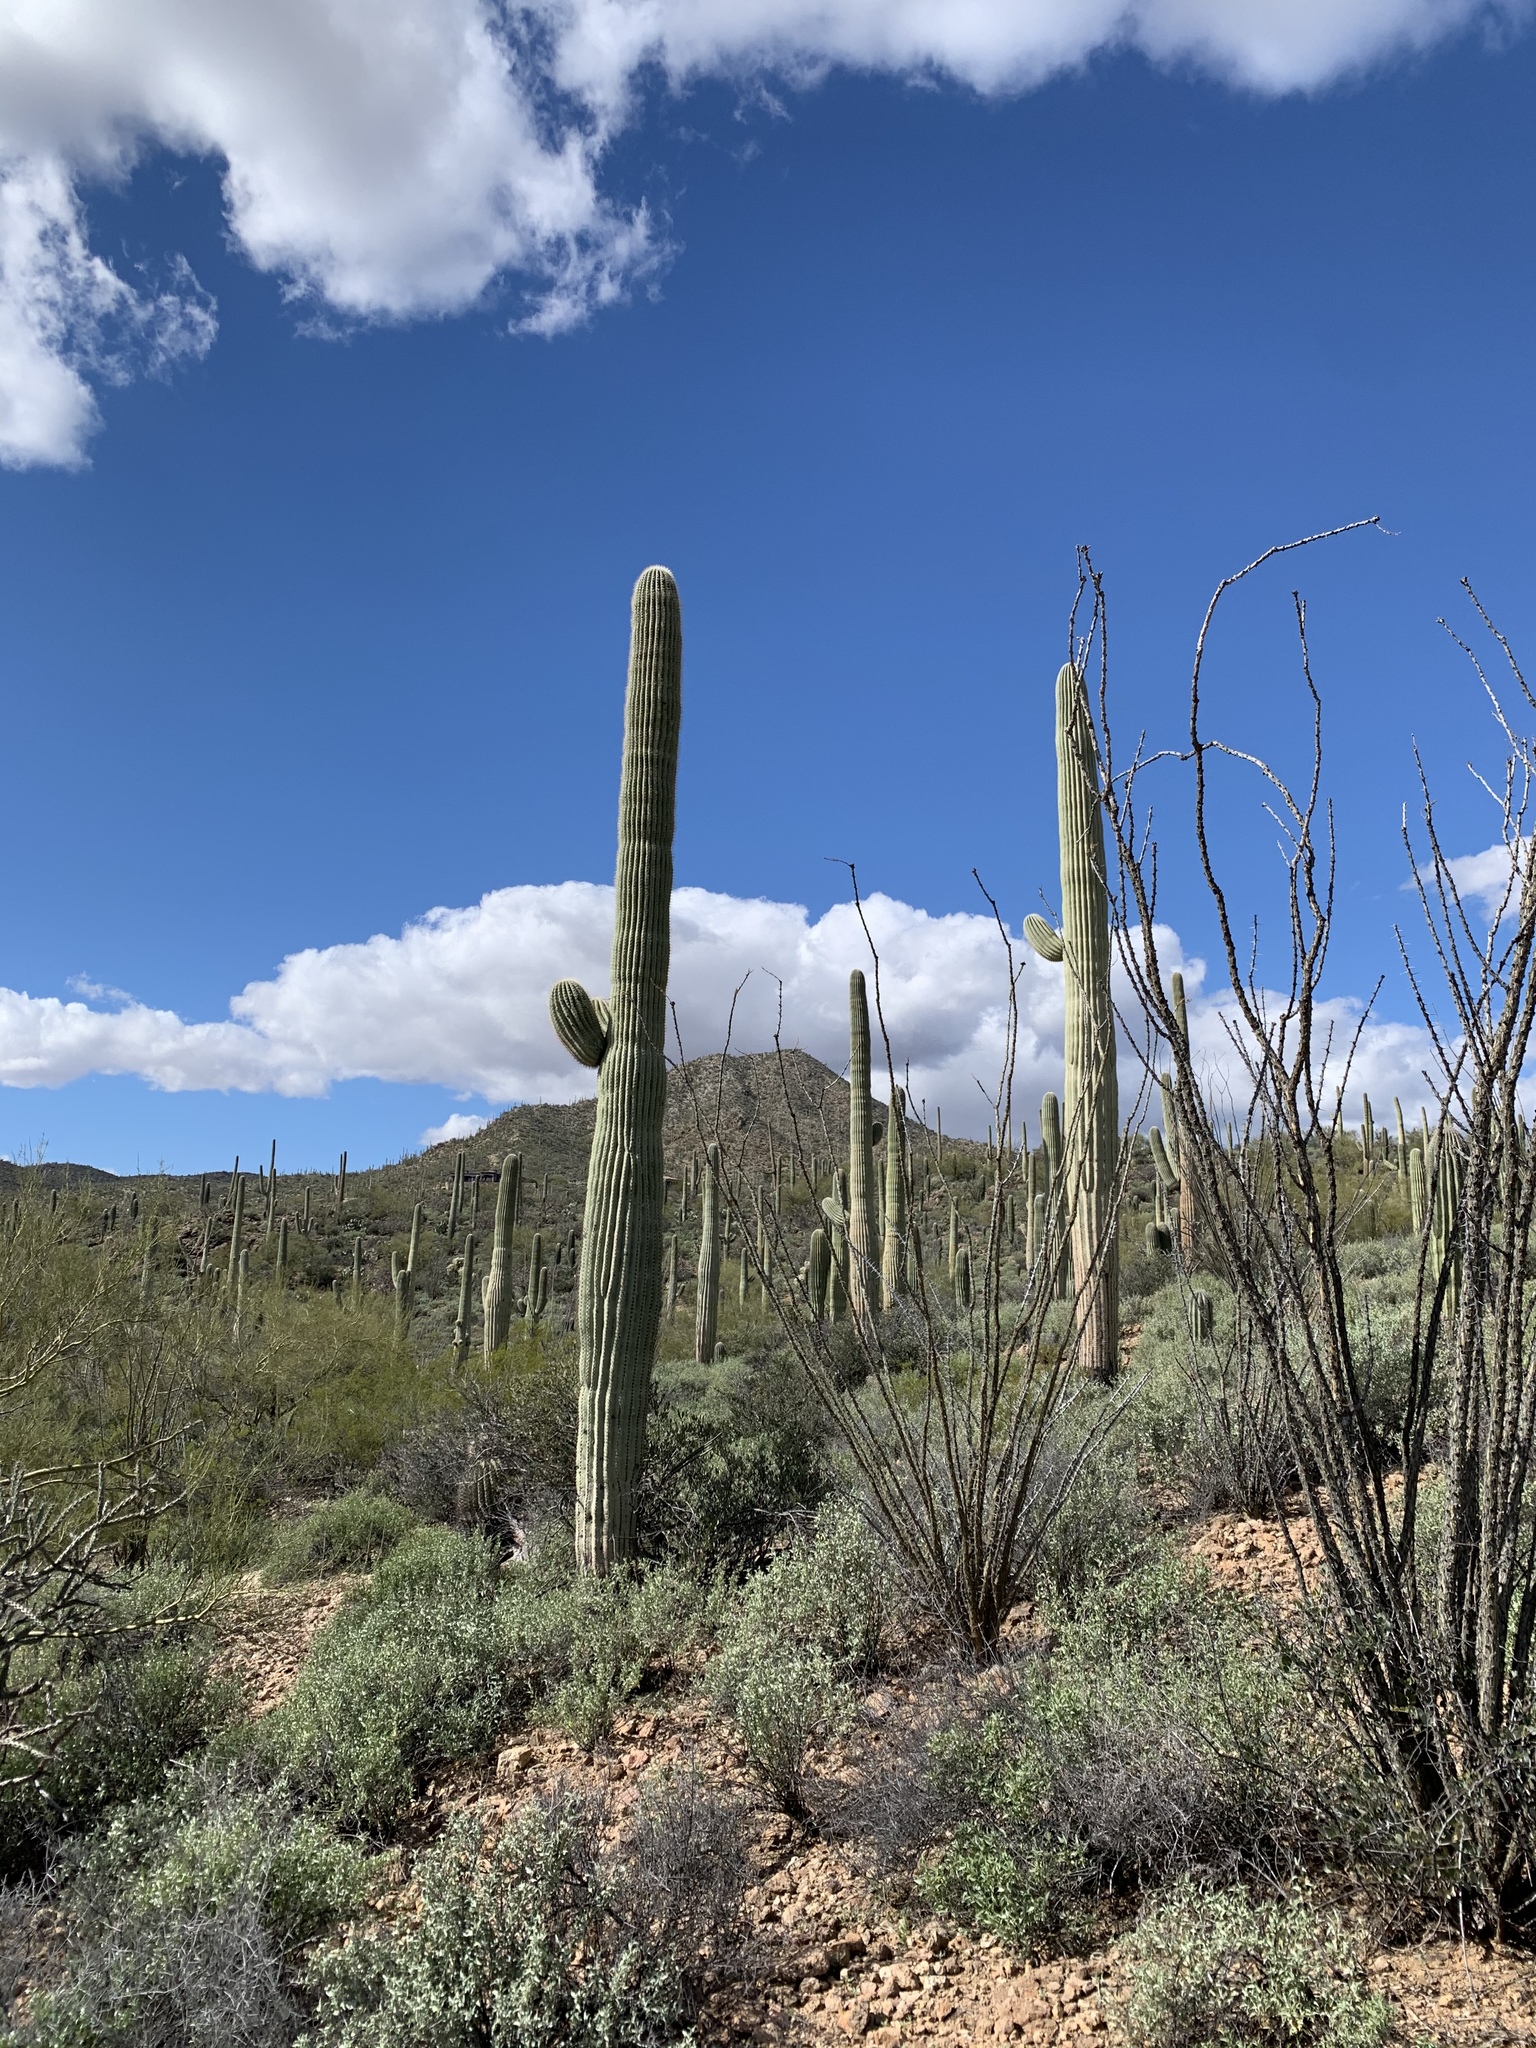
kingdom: Plantae
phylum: Tracheophyta
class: Magnoliopsida
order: Caryophyllales
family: Cactaceae
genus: Carnegiea
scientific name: Carnegiea gigantea
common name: Saguaro
